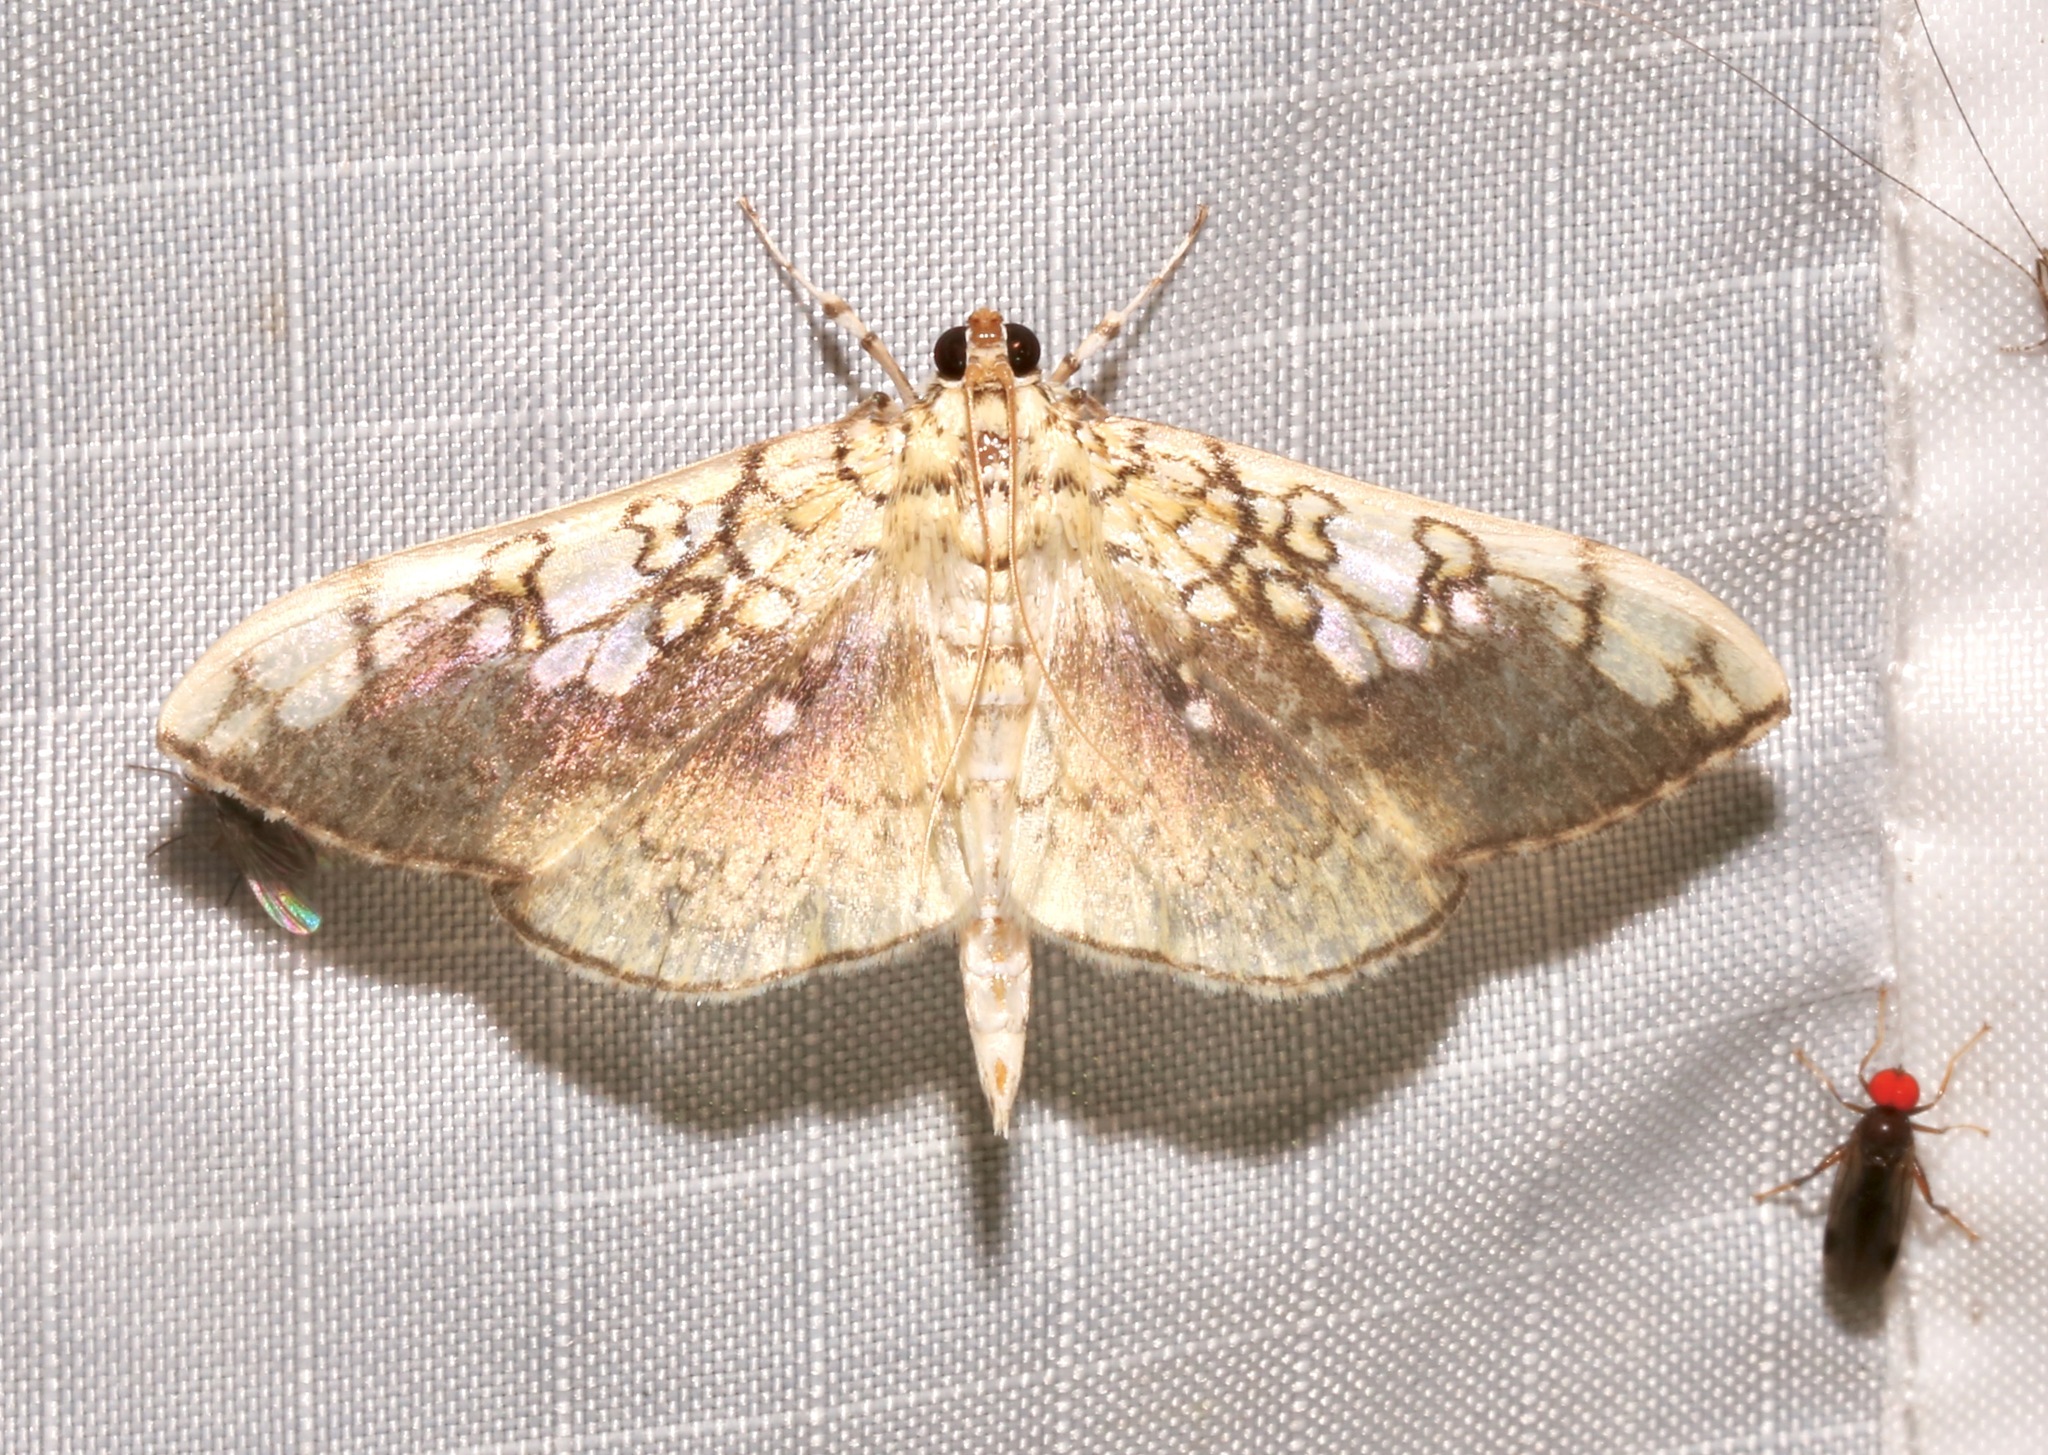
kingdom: Animalia
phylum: Arthropoda
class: Insecta
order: Lepidoptera
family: Crambidae
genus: Pantographa
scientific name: Pantographa limata
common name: Basswood leafroller moth
